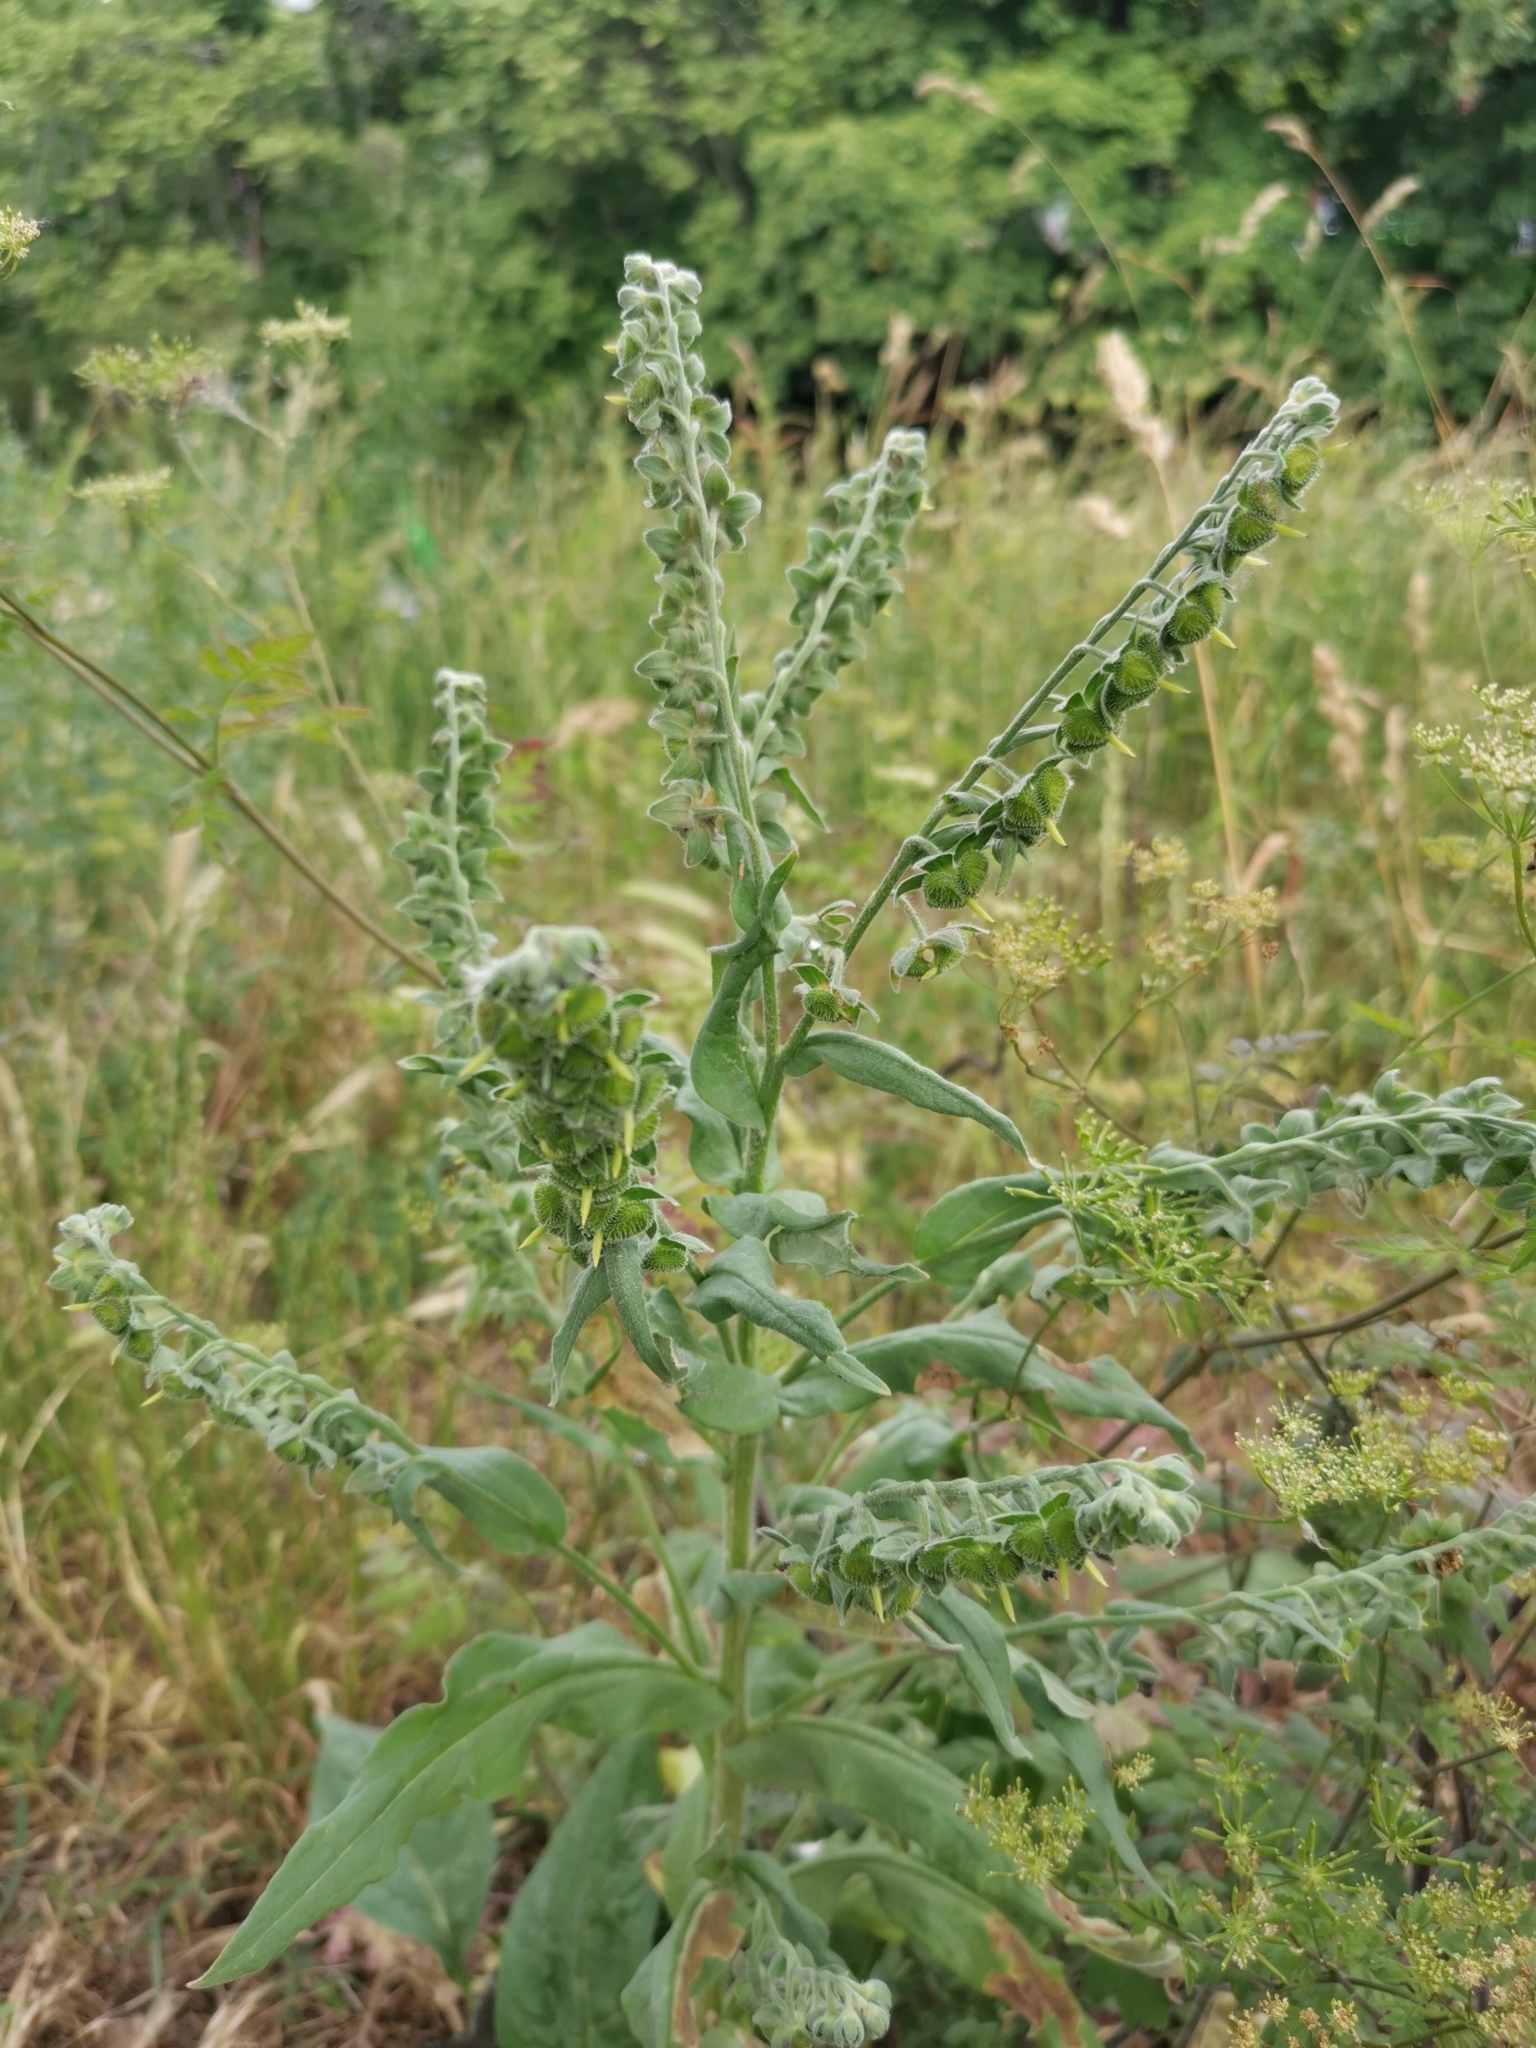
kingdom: Plantae
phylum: Tracheophyta
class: Magnoliopsida
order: Boraginales
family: Boraginaceae
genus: Cynoglossum
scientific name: Cynoglossum officinale
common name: Hound's-tongue
